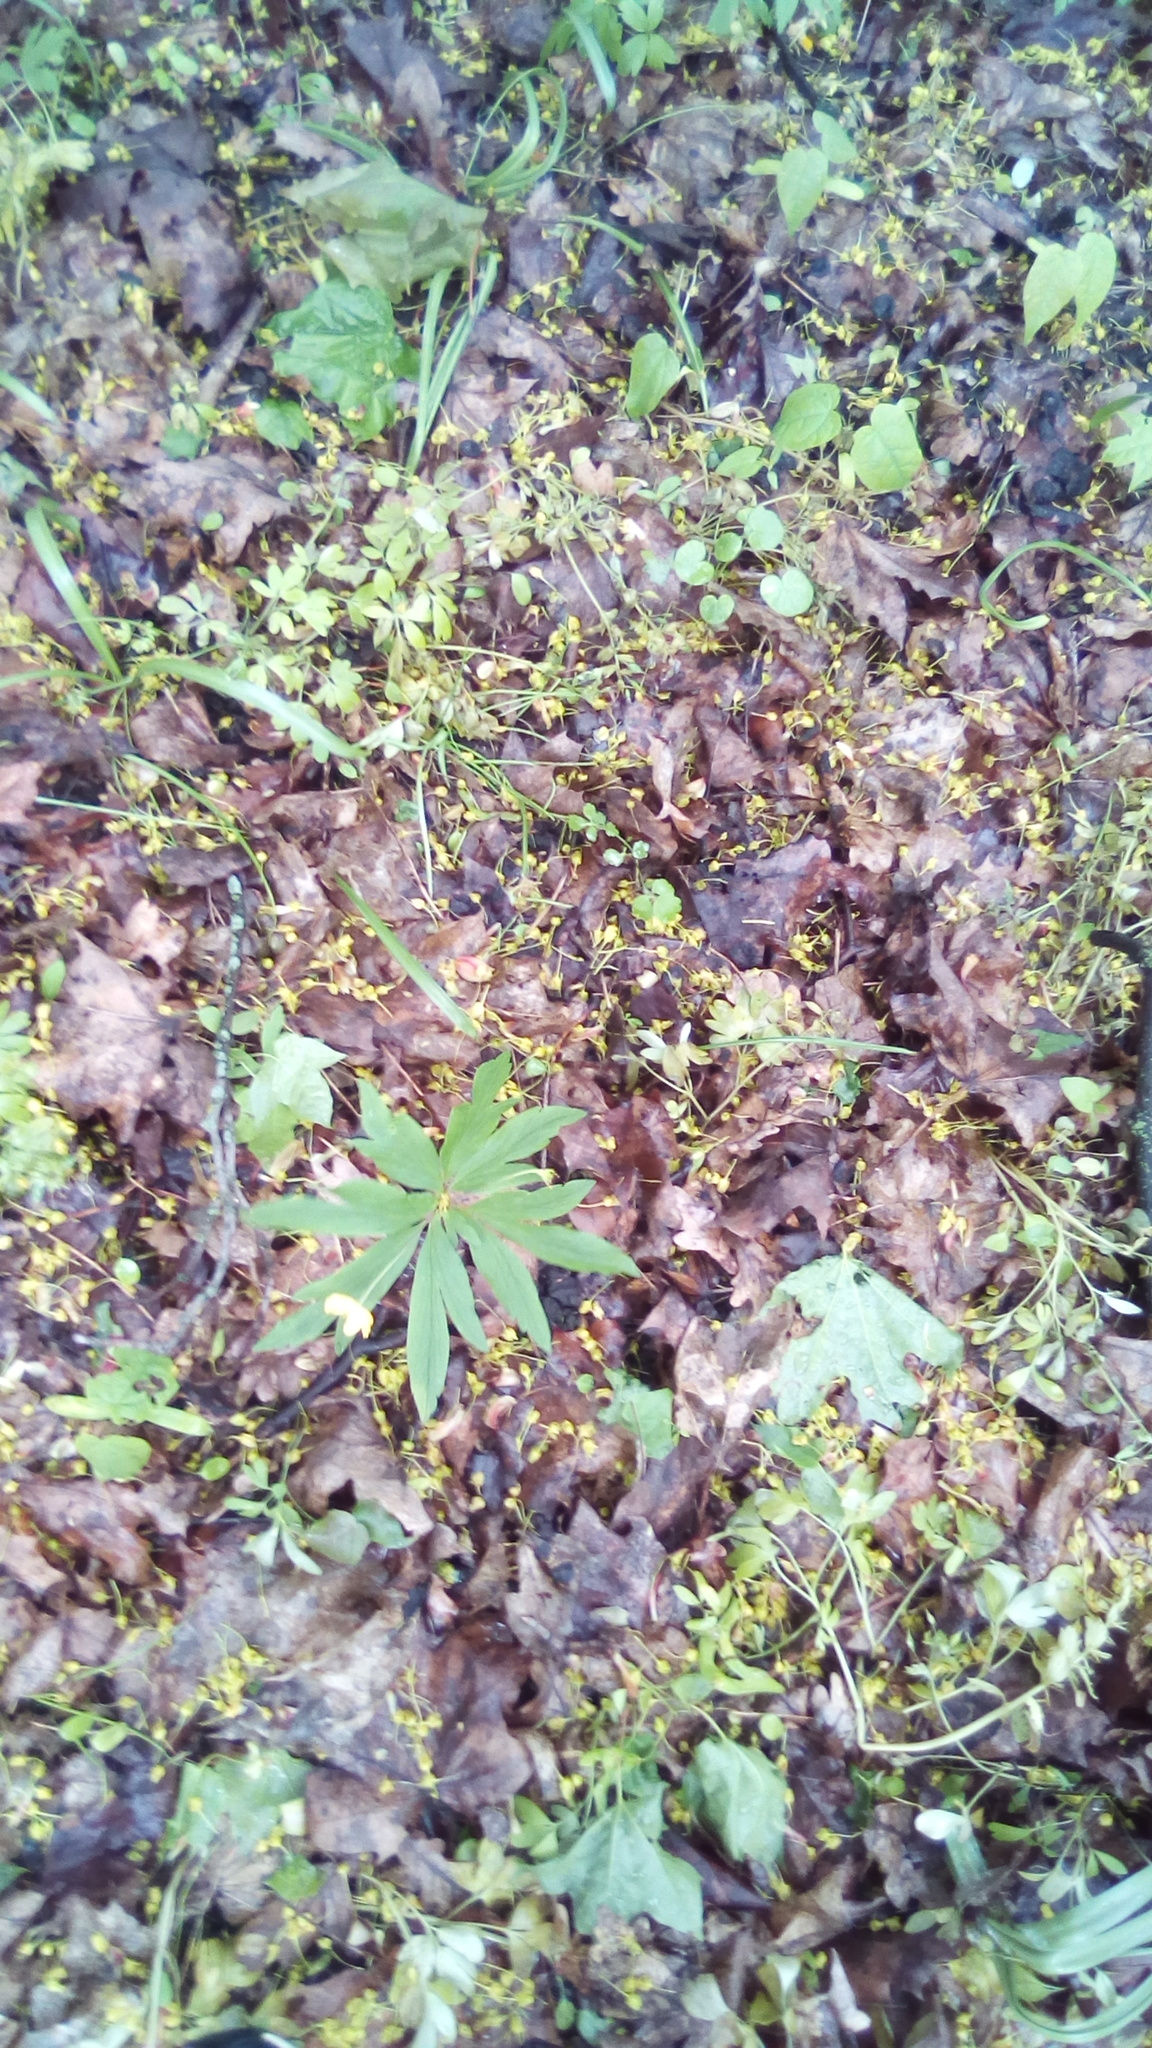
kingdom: Plantae
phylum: Tracheophyta
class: Magnoliopsida
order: Ranunculales
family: Ranunculaceae
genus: Anemone
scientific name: Anemone ranunculoides
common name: Yellow anemone
